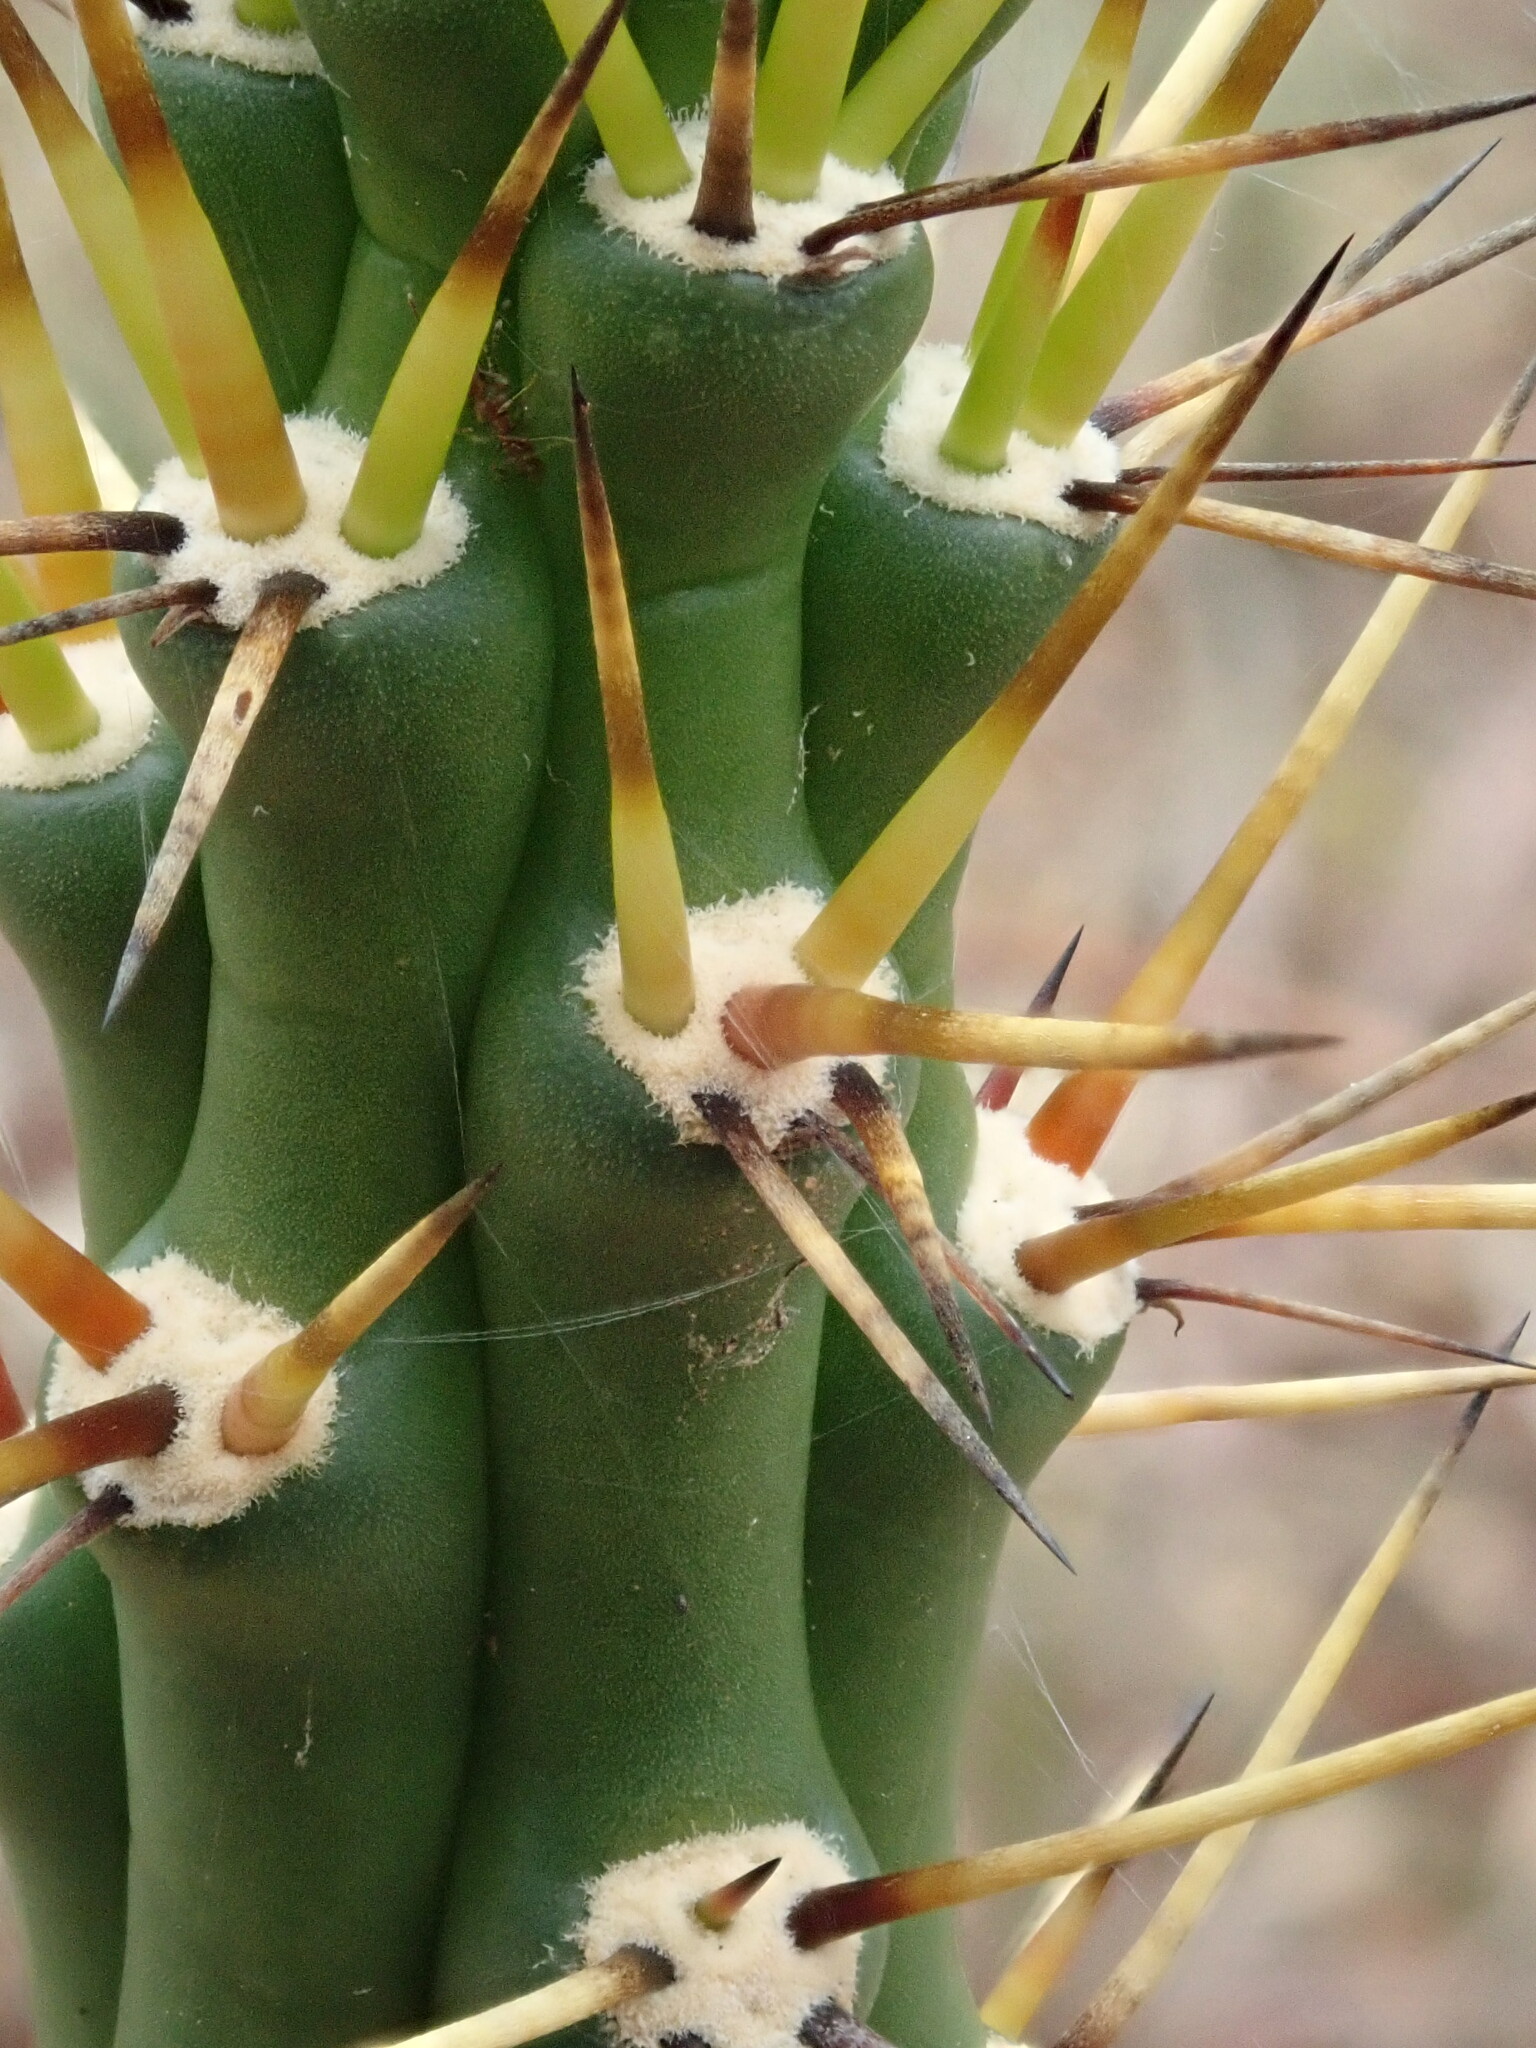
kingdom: Plantae
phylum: Tracheophyta
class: Magnoliopsida
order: Caryophyllales
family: Cactaceae
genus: Harrisia
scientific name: Harrisia pomanensis
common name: Midnight-lady
